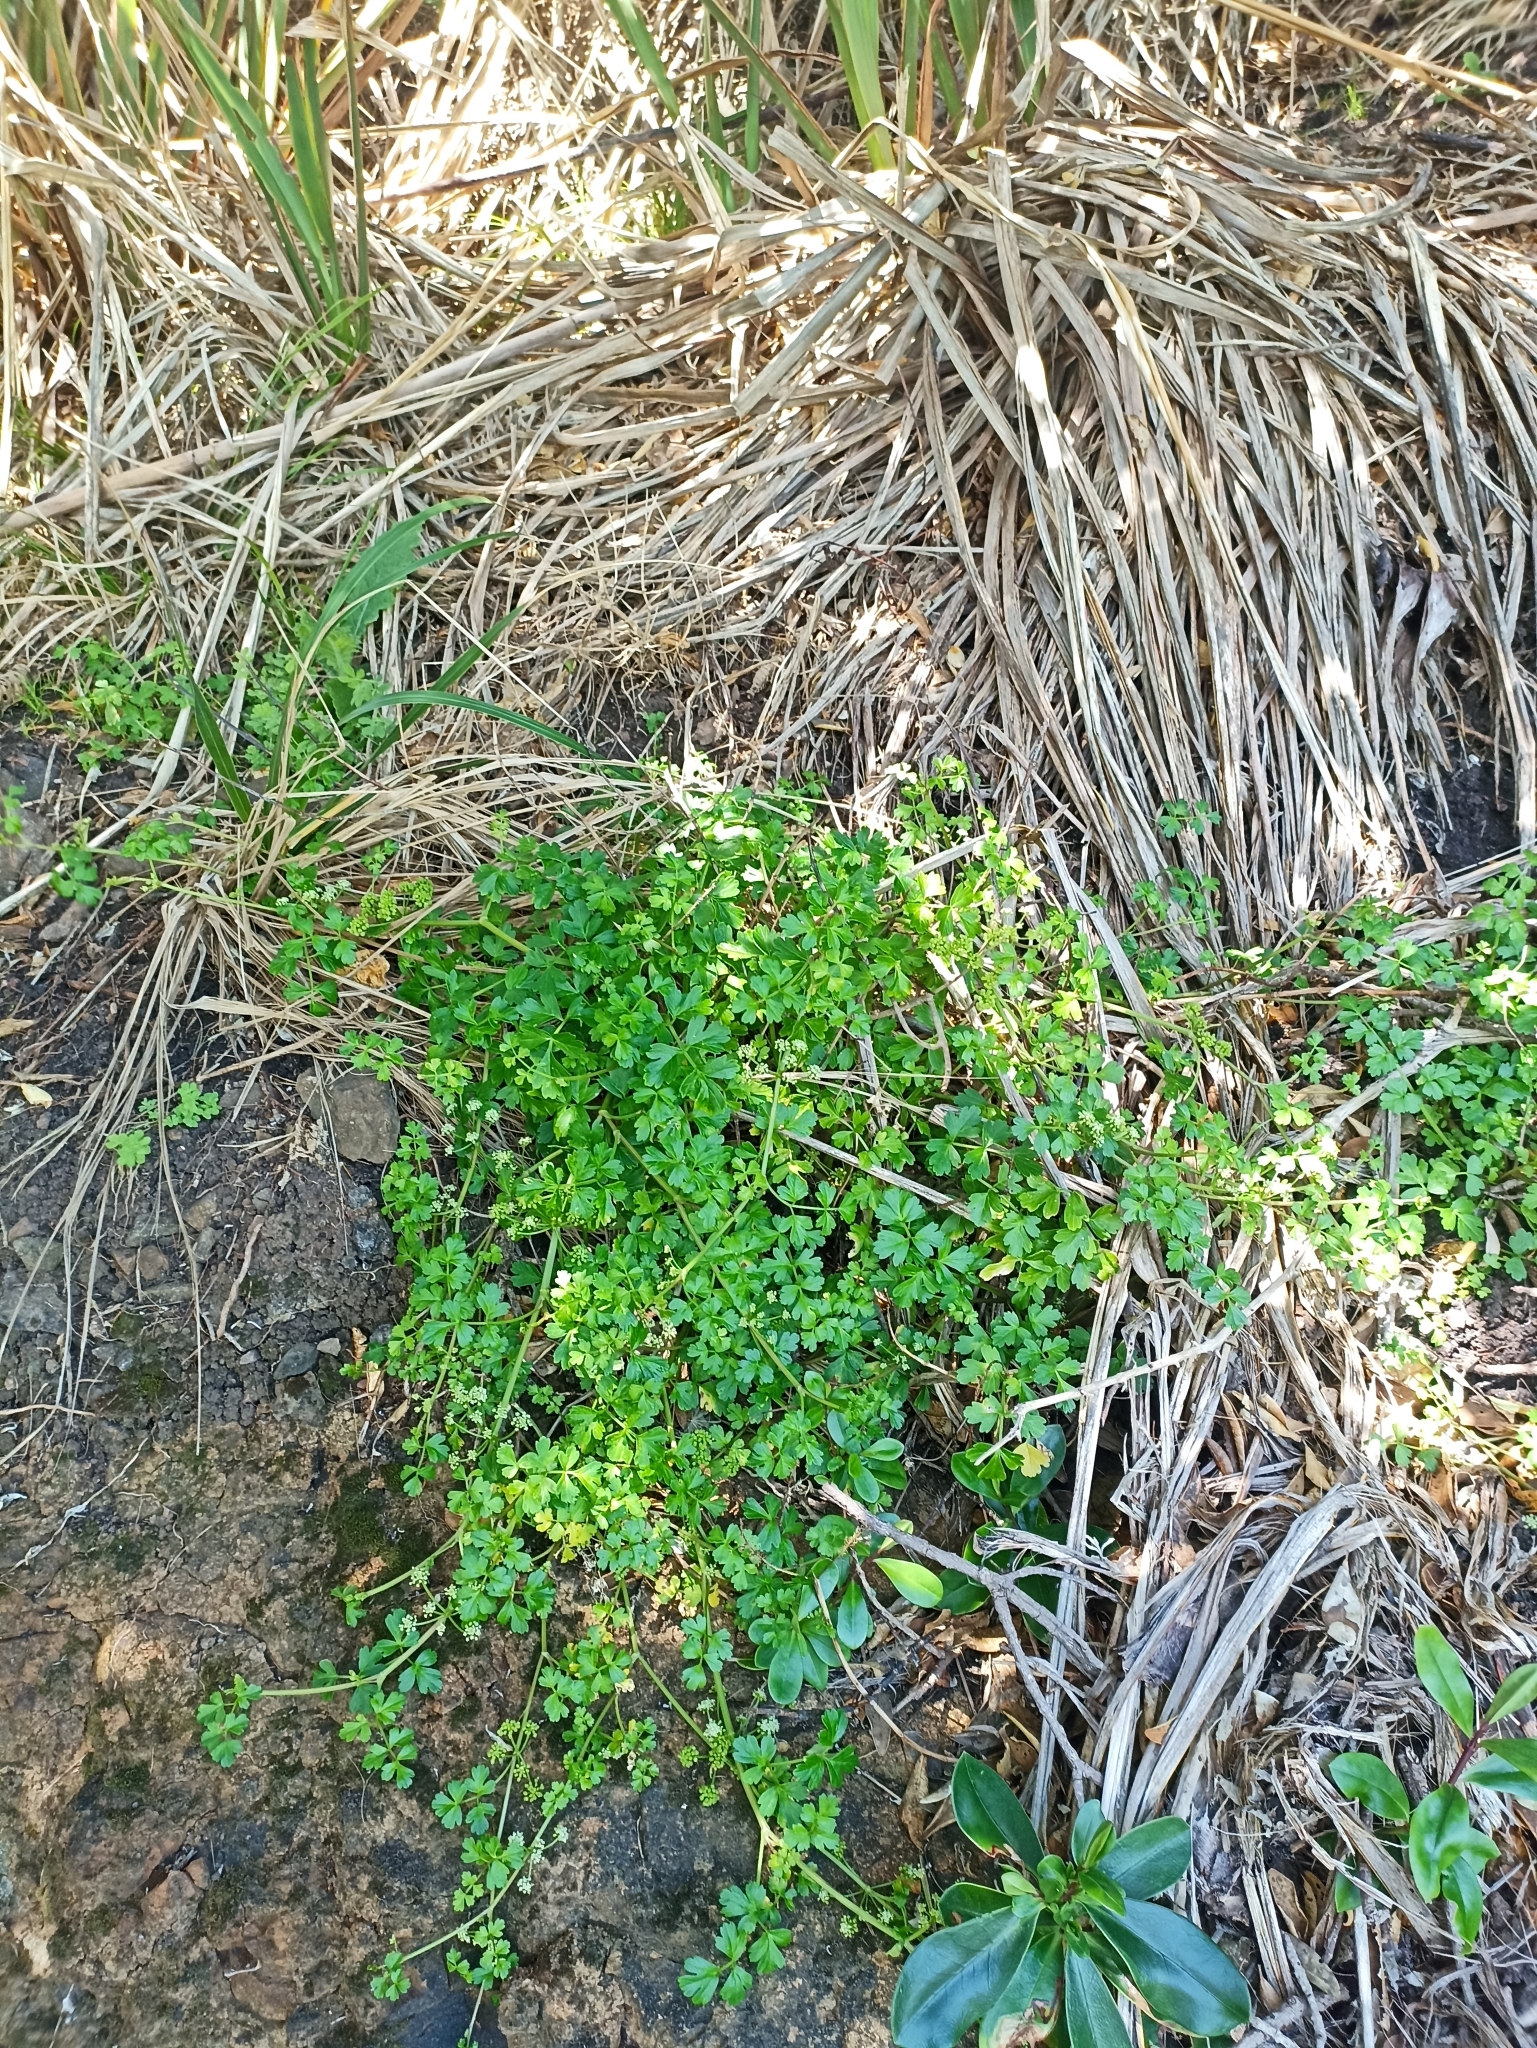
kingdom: Plantae
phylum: Tracheophyta
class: Magnoliopsida
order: Apiales
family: Apiaceae
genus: Apium
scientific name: Apium prostratum
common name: Prostrate marshwort
